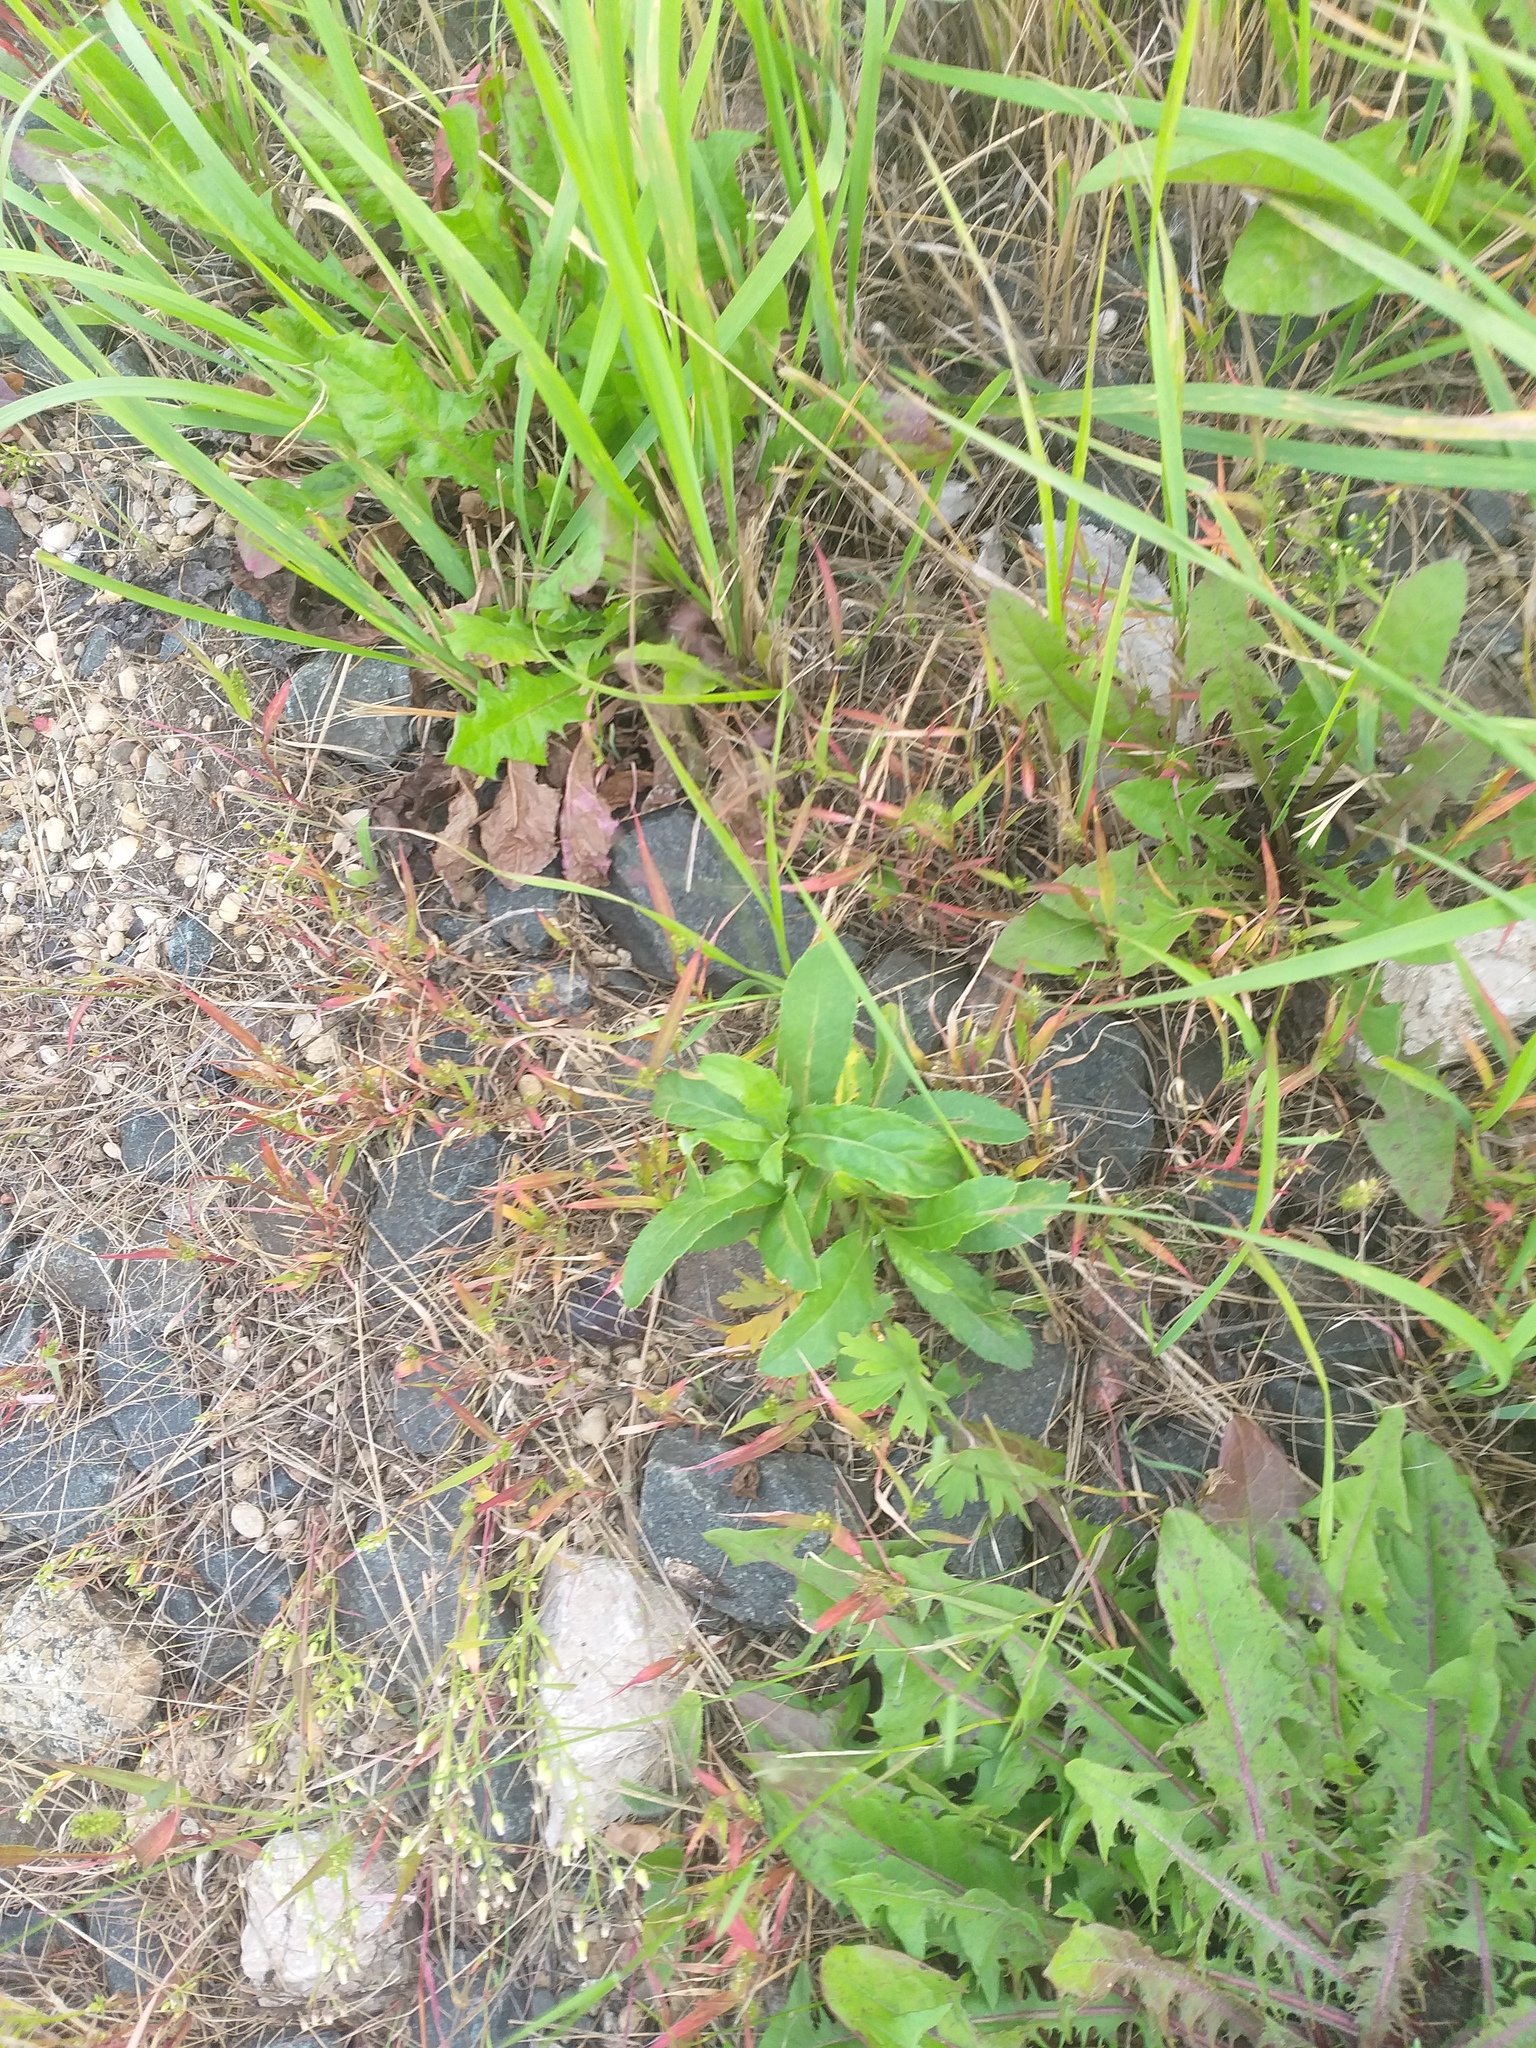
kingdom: Plantae
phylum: Tracheophyta
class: Magnoliopsida
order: Asterales
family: Asteraceae
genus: Cirsium
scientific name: Cirsium arvense
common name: Creeping thistle
